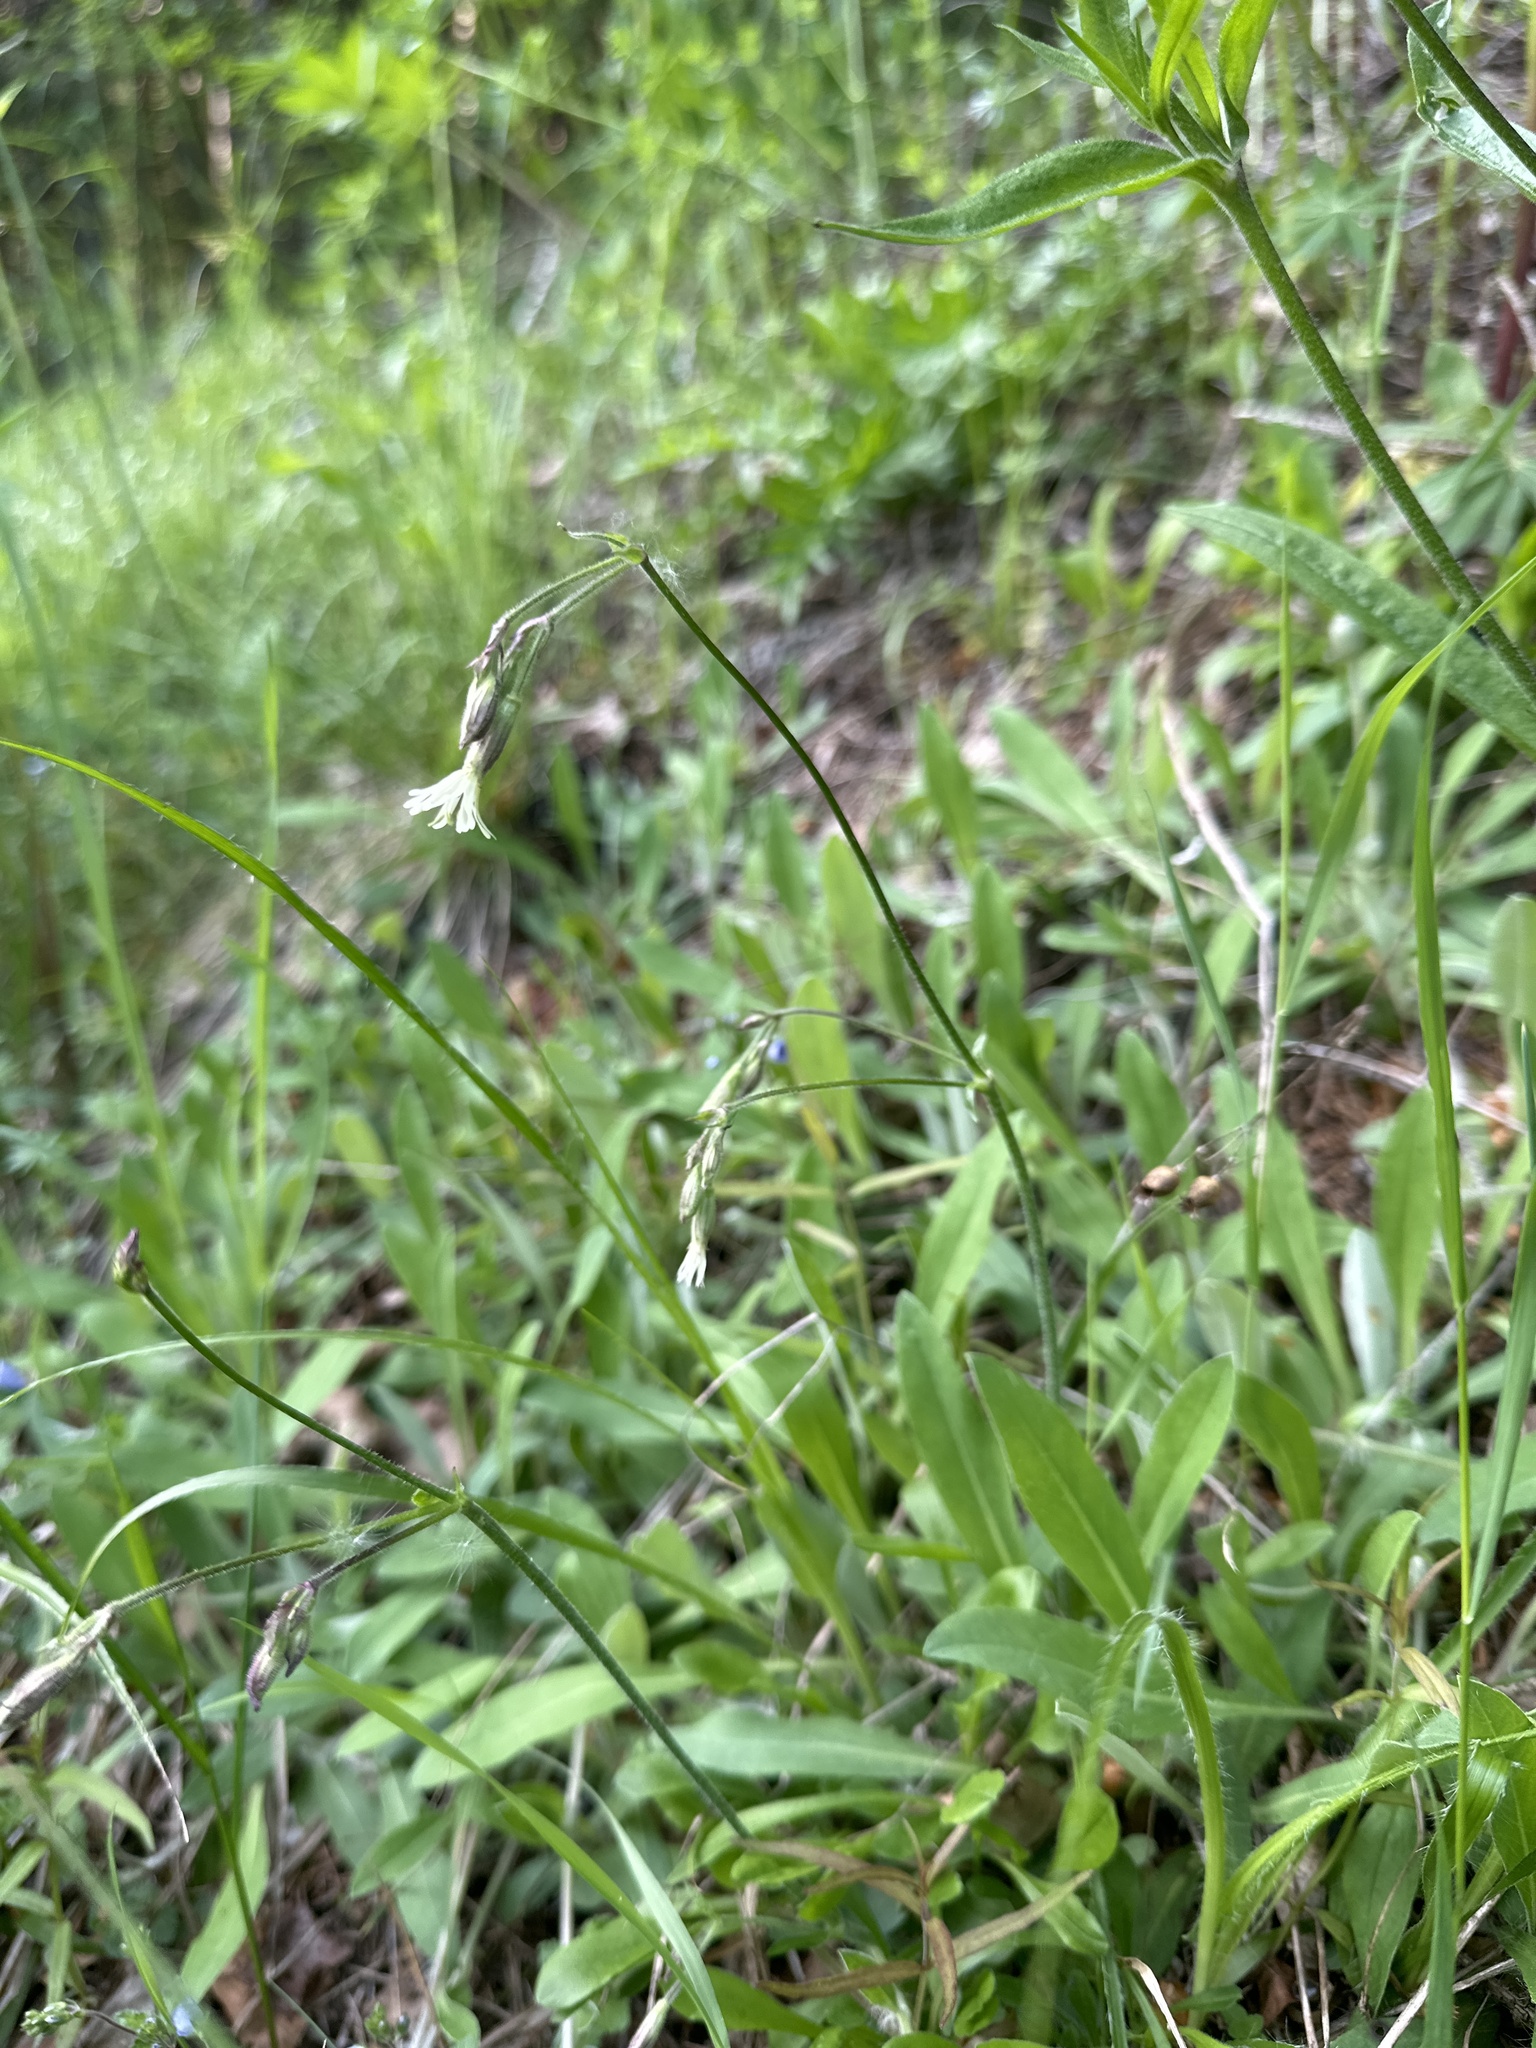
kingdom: Plantae
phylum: Tracheophyta
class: Magnoliopsida
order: Caryophyllales
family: Caryophyllaceae
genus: Silene
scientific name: Silene nutans
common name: Nottingham catchfly
